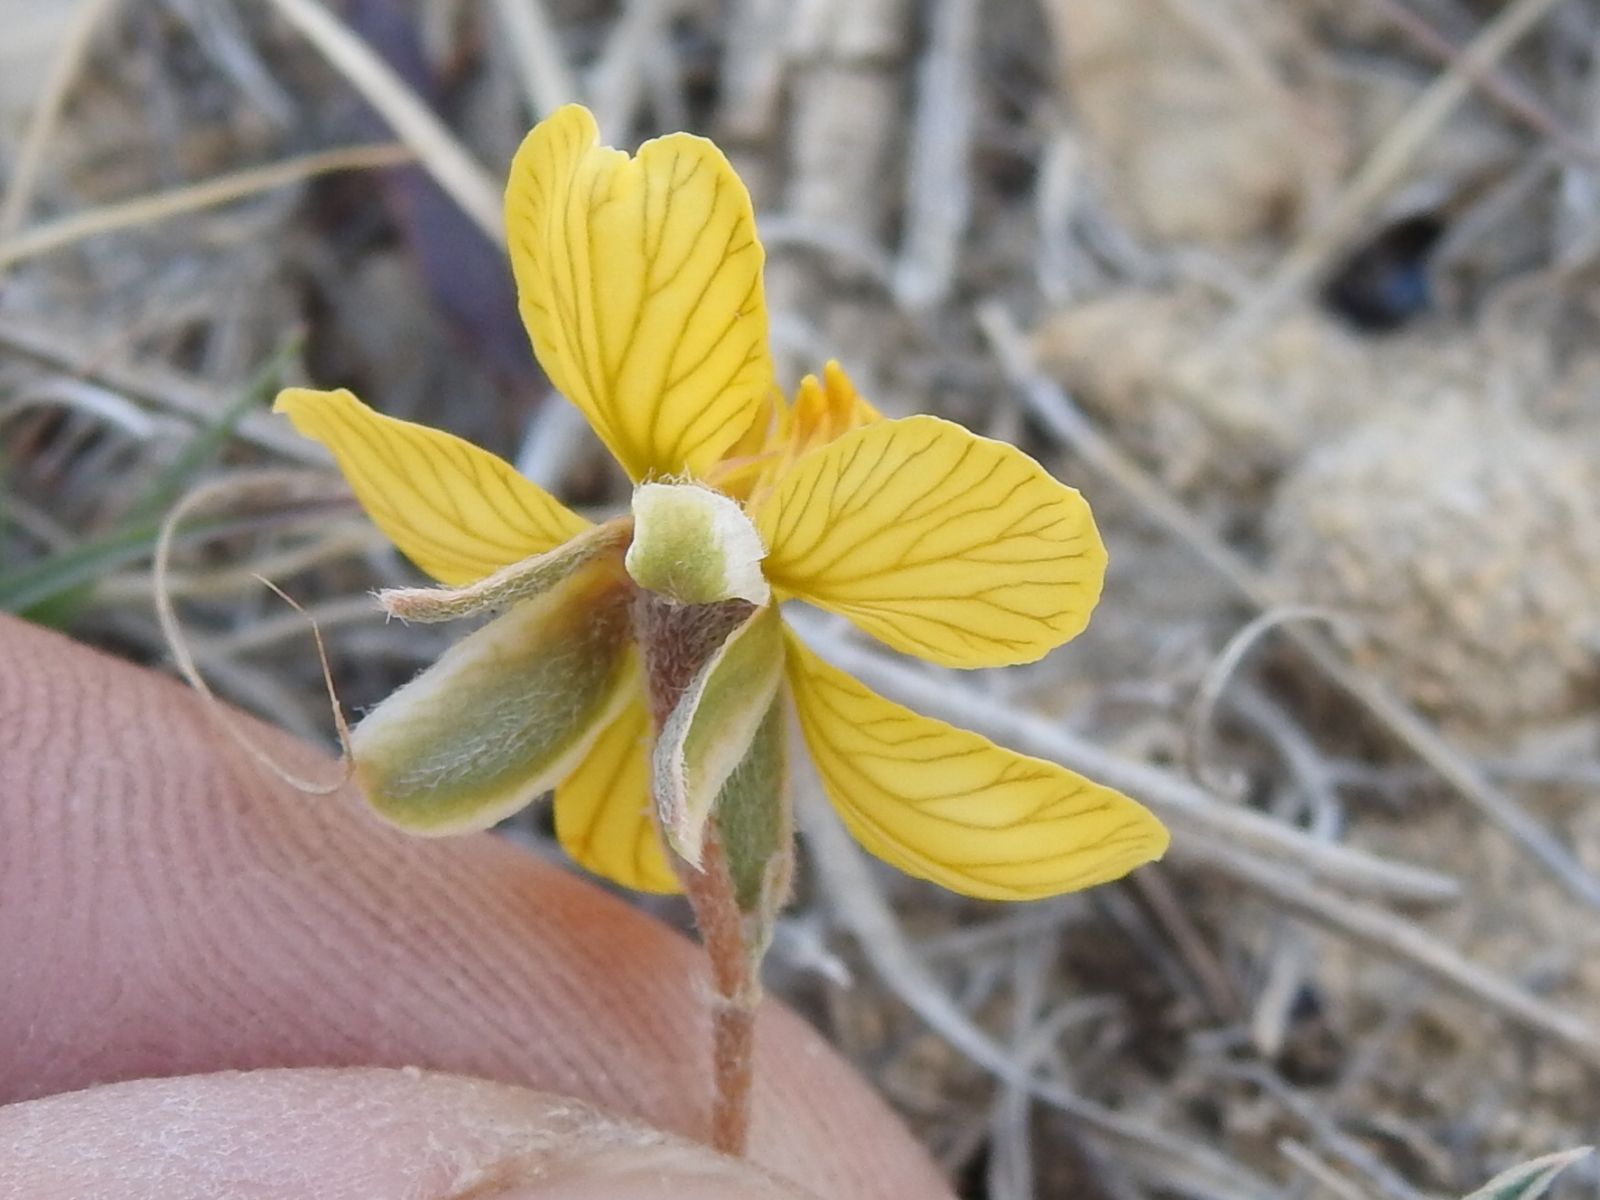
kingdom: Plantae
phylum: Tracheophyta
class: Magnoliopsida
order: Fabales
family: Fabaceae
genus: Senna
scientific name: Senna pumilio
